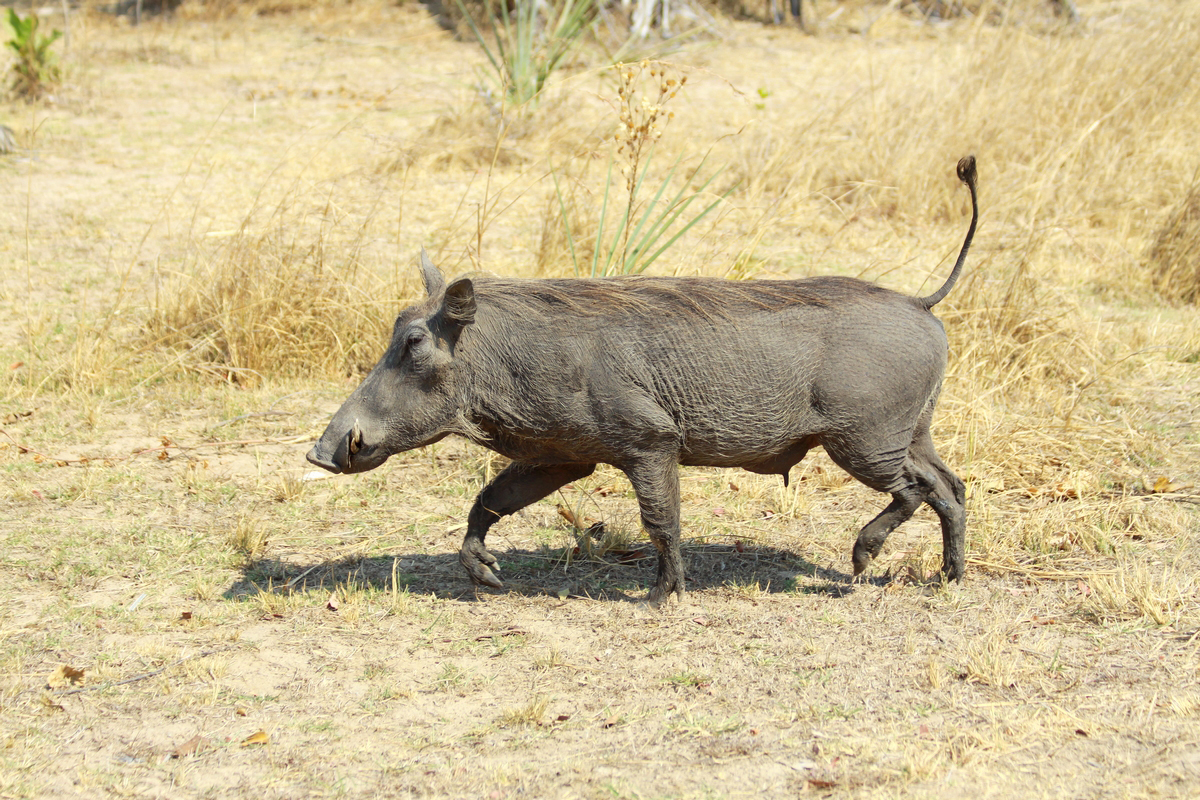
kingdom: Animalia
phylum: Chordata
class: Mammalia
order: Artiodactyla
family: Suidae
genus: Phacochoerus
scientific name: Phacochoerus africanus
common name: Common warthog
